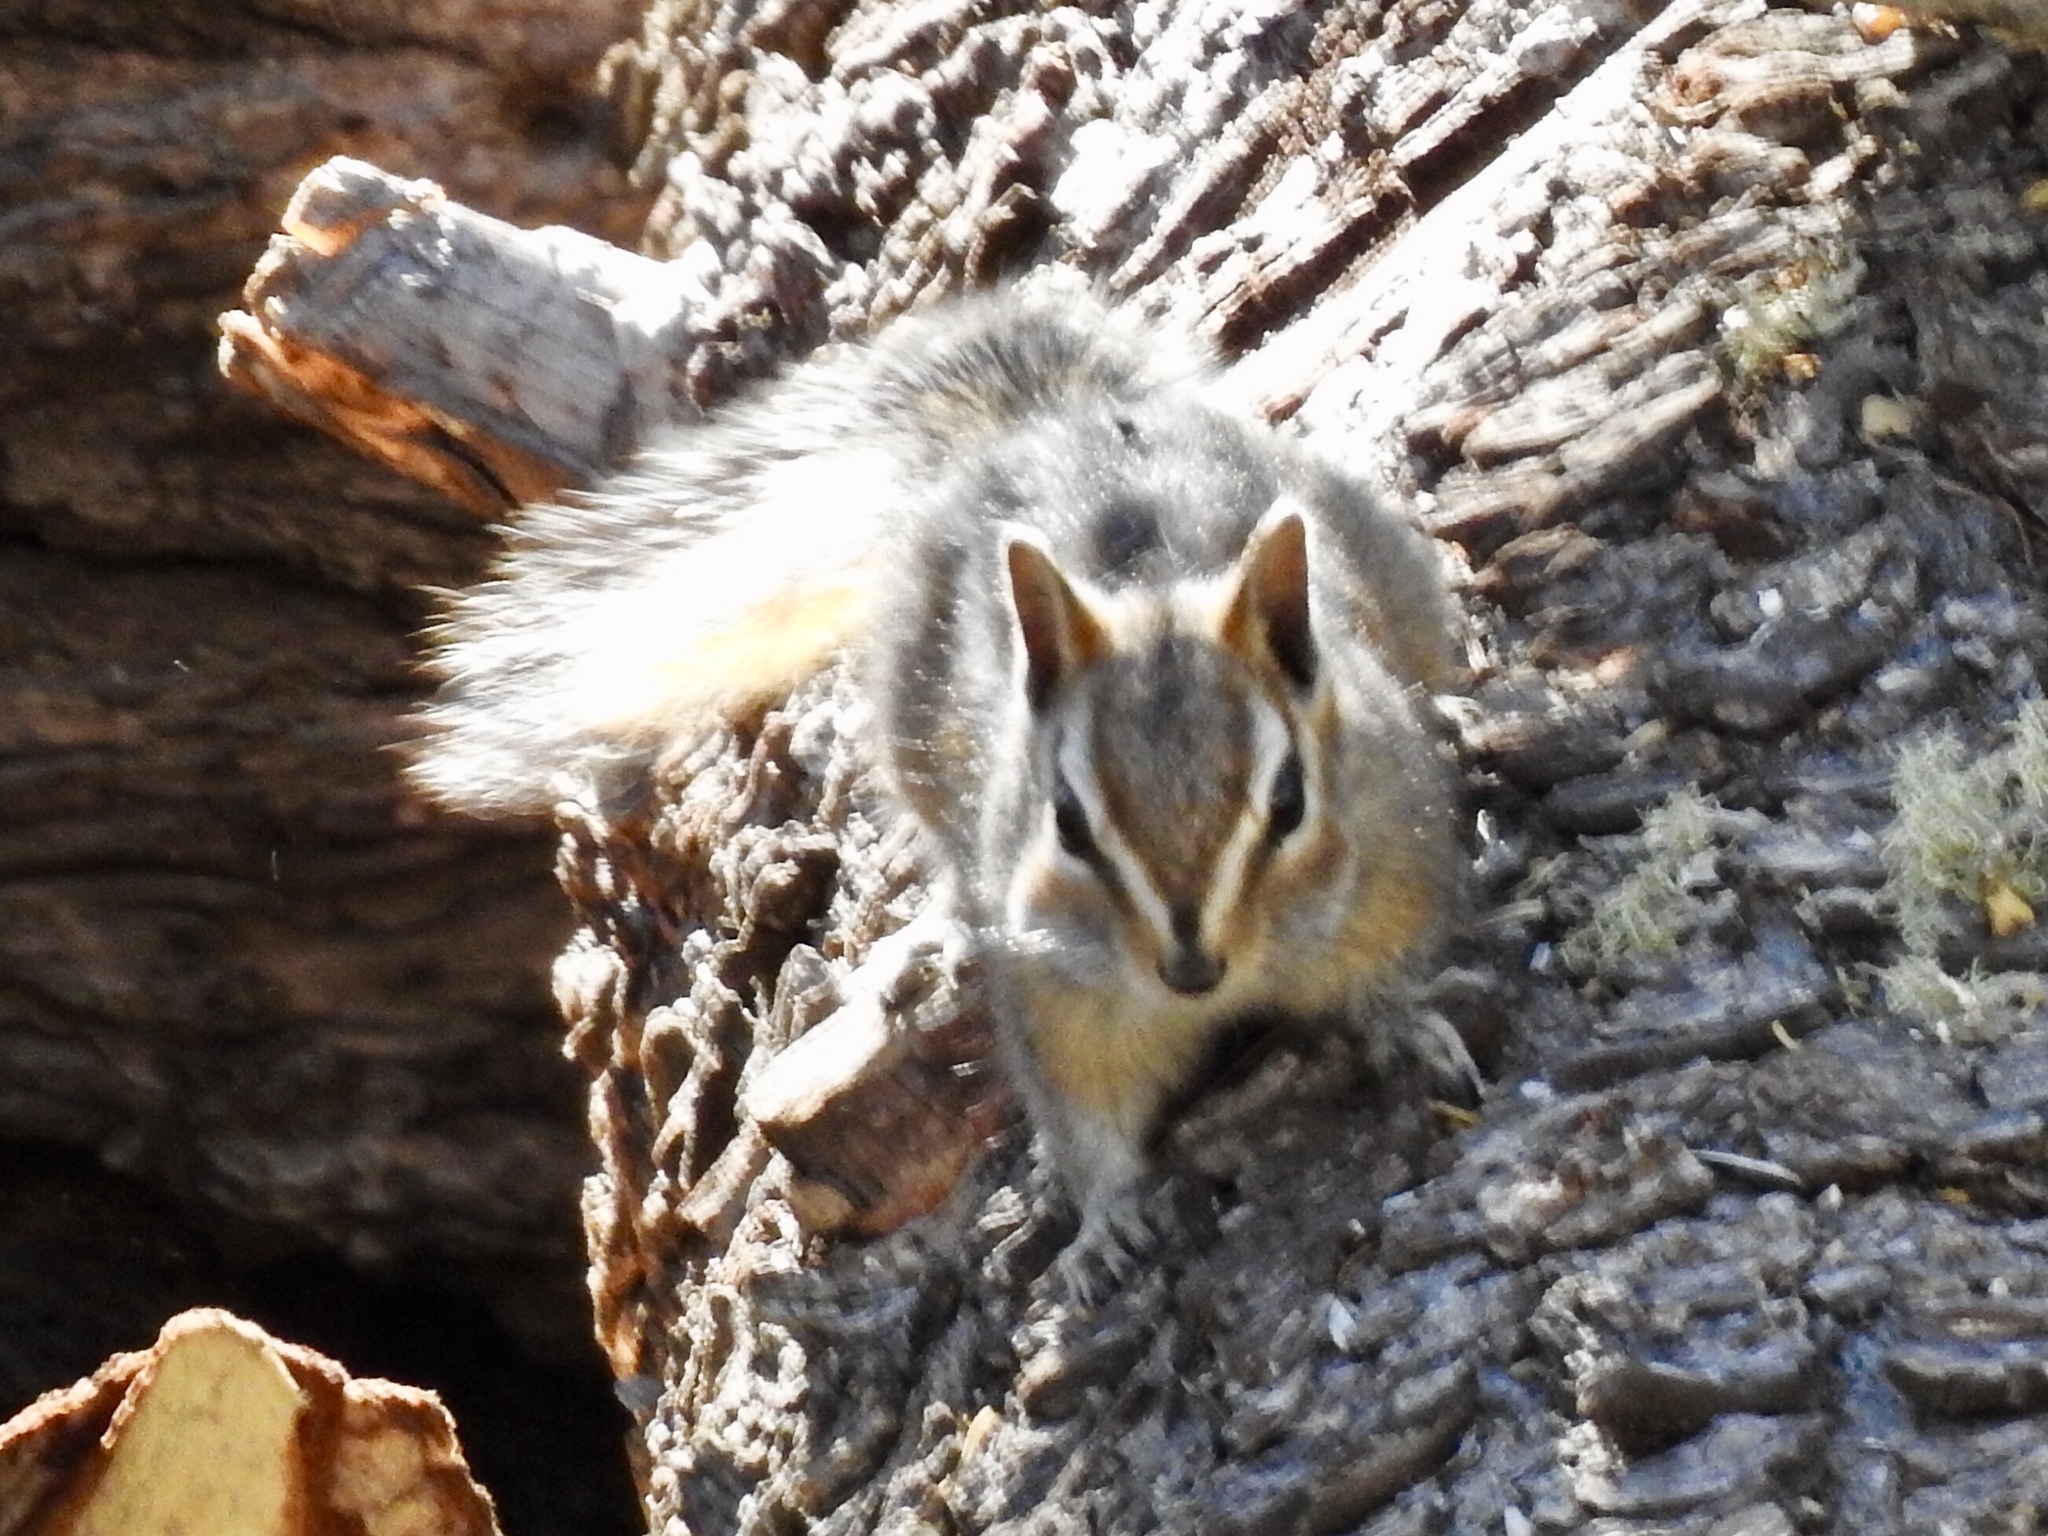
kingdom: Animalia
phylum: Chordata
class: Mammalia
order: Rodentia
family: Sciuridae
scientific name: Sciuridae
